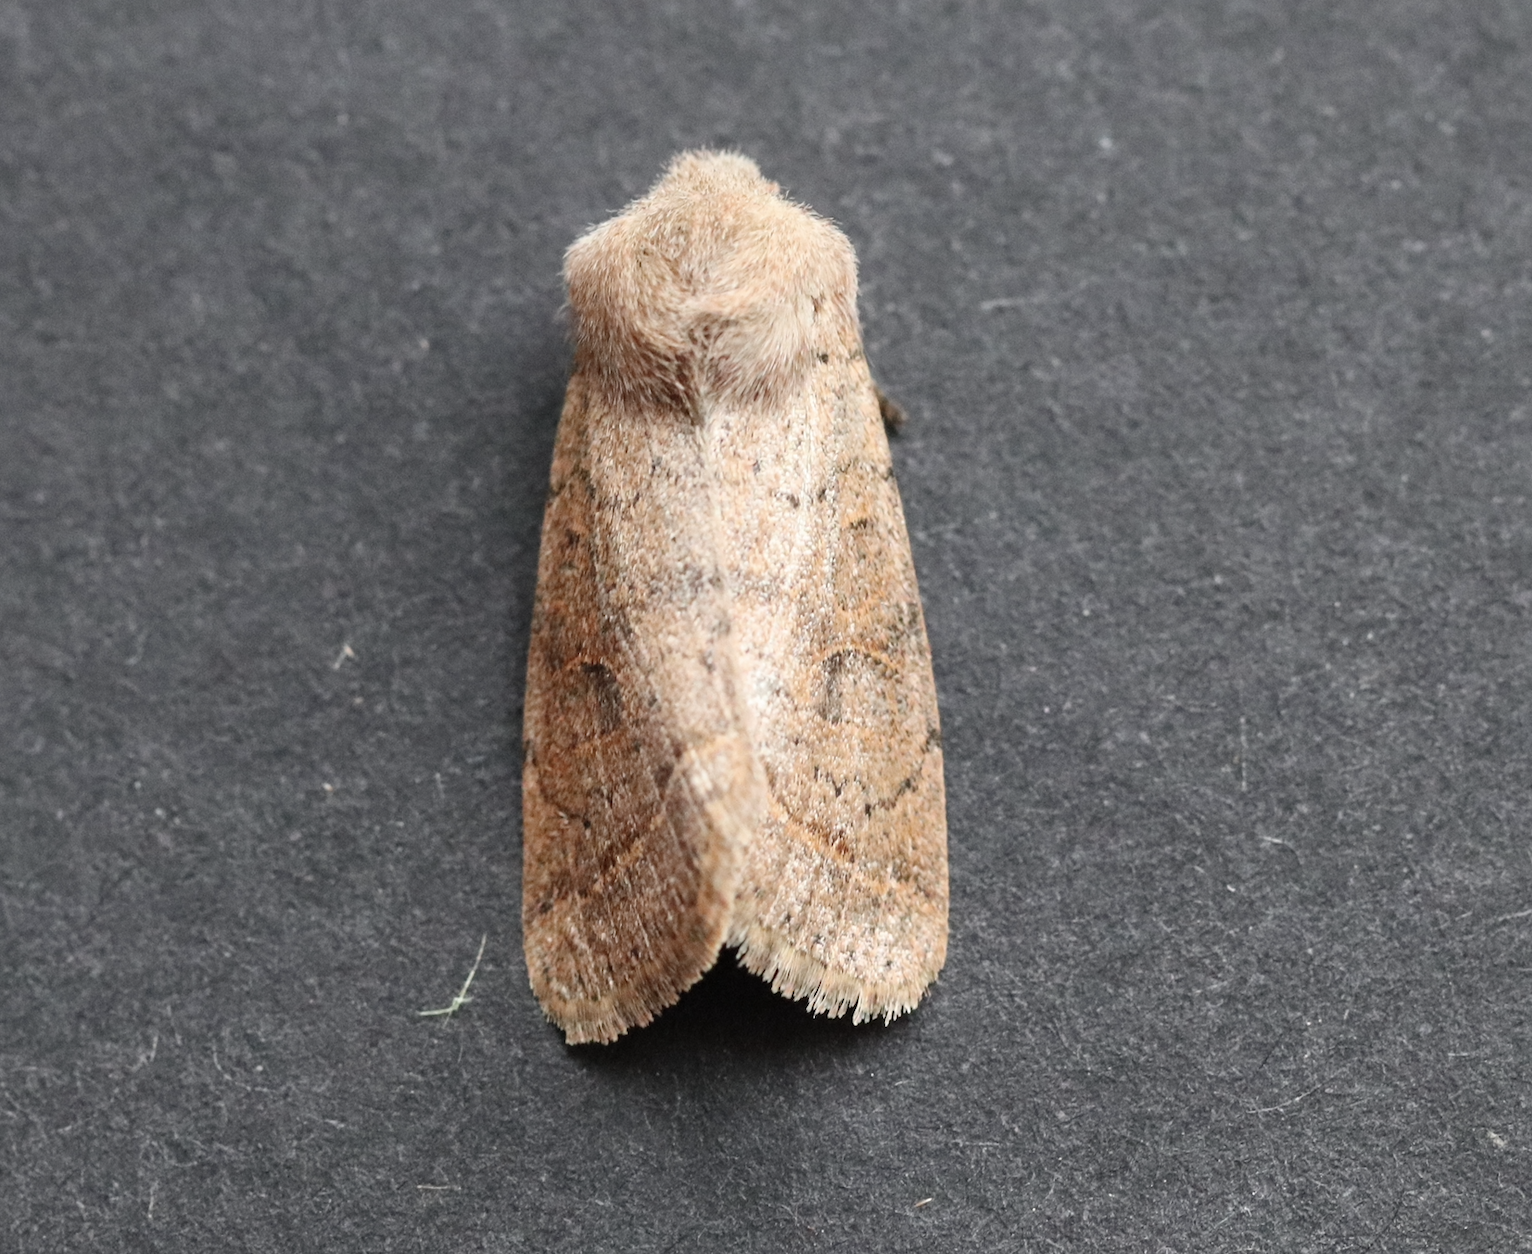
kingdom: Animalia
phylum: Arthropoda
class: Insecta
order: Lepidoptera
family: Noctuidae
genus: Orthosia
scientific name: Orthosia cerasi
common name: Common quaker
